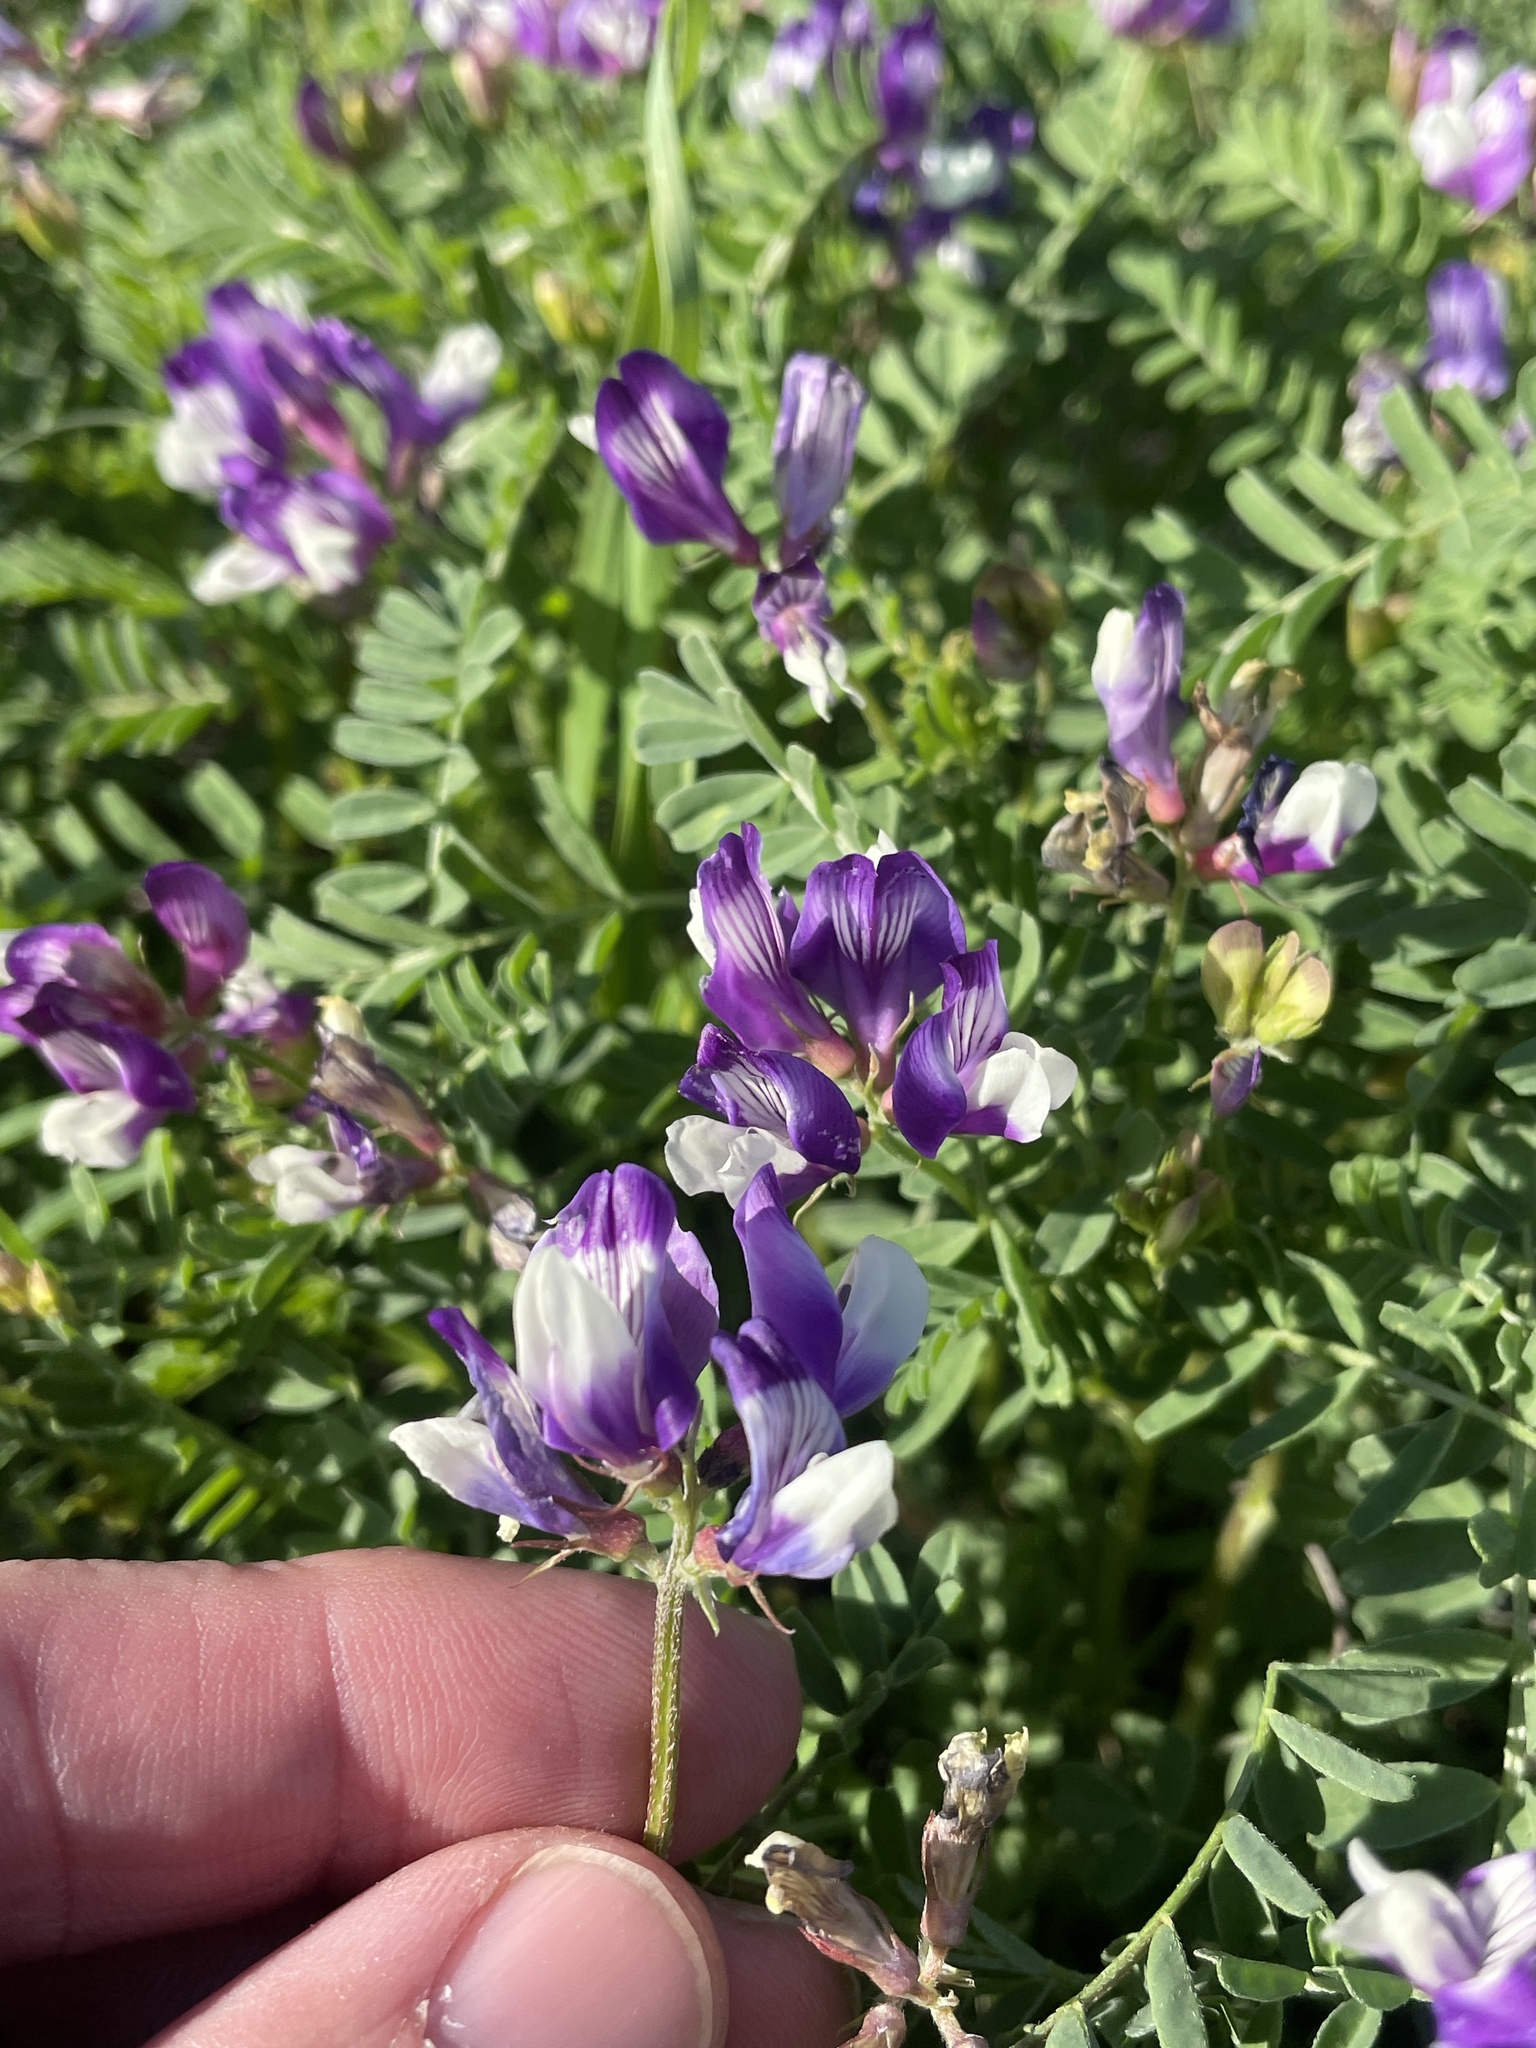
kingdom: Plantae
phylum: Tracheophyta
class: Magnoliopsida
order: Fabales
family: Fabaceae
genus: Astragalus
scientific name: Astragalus lindheimeri
